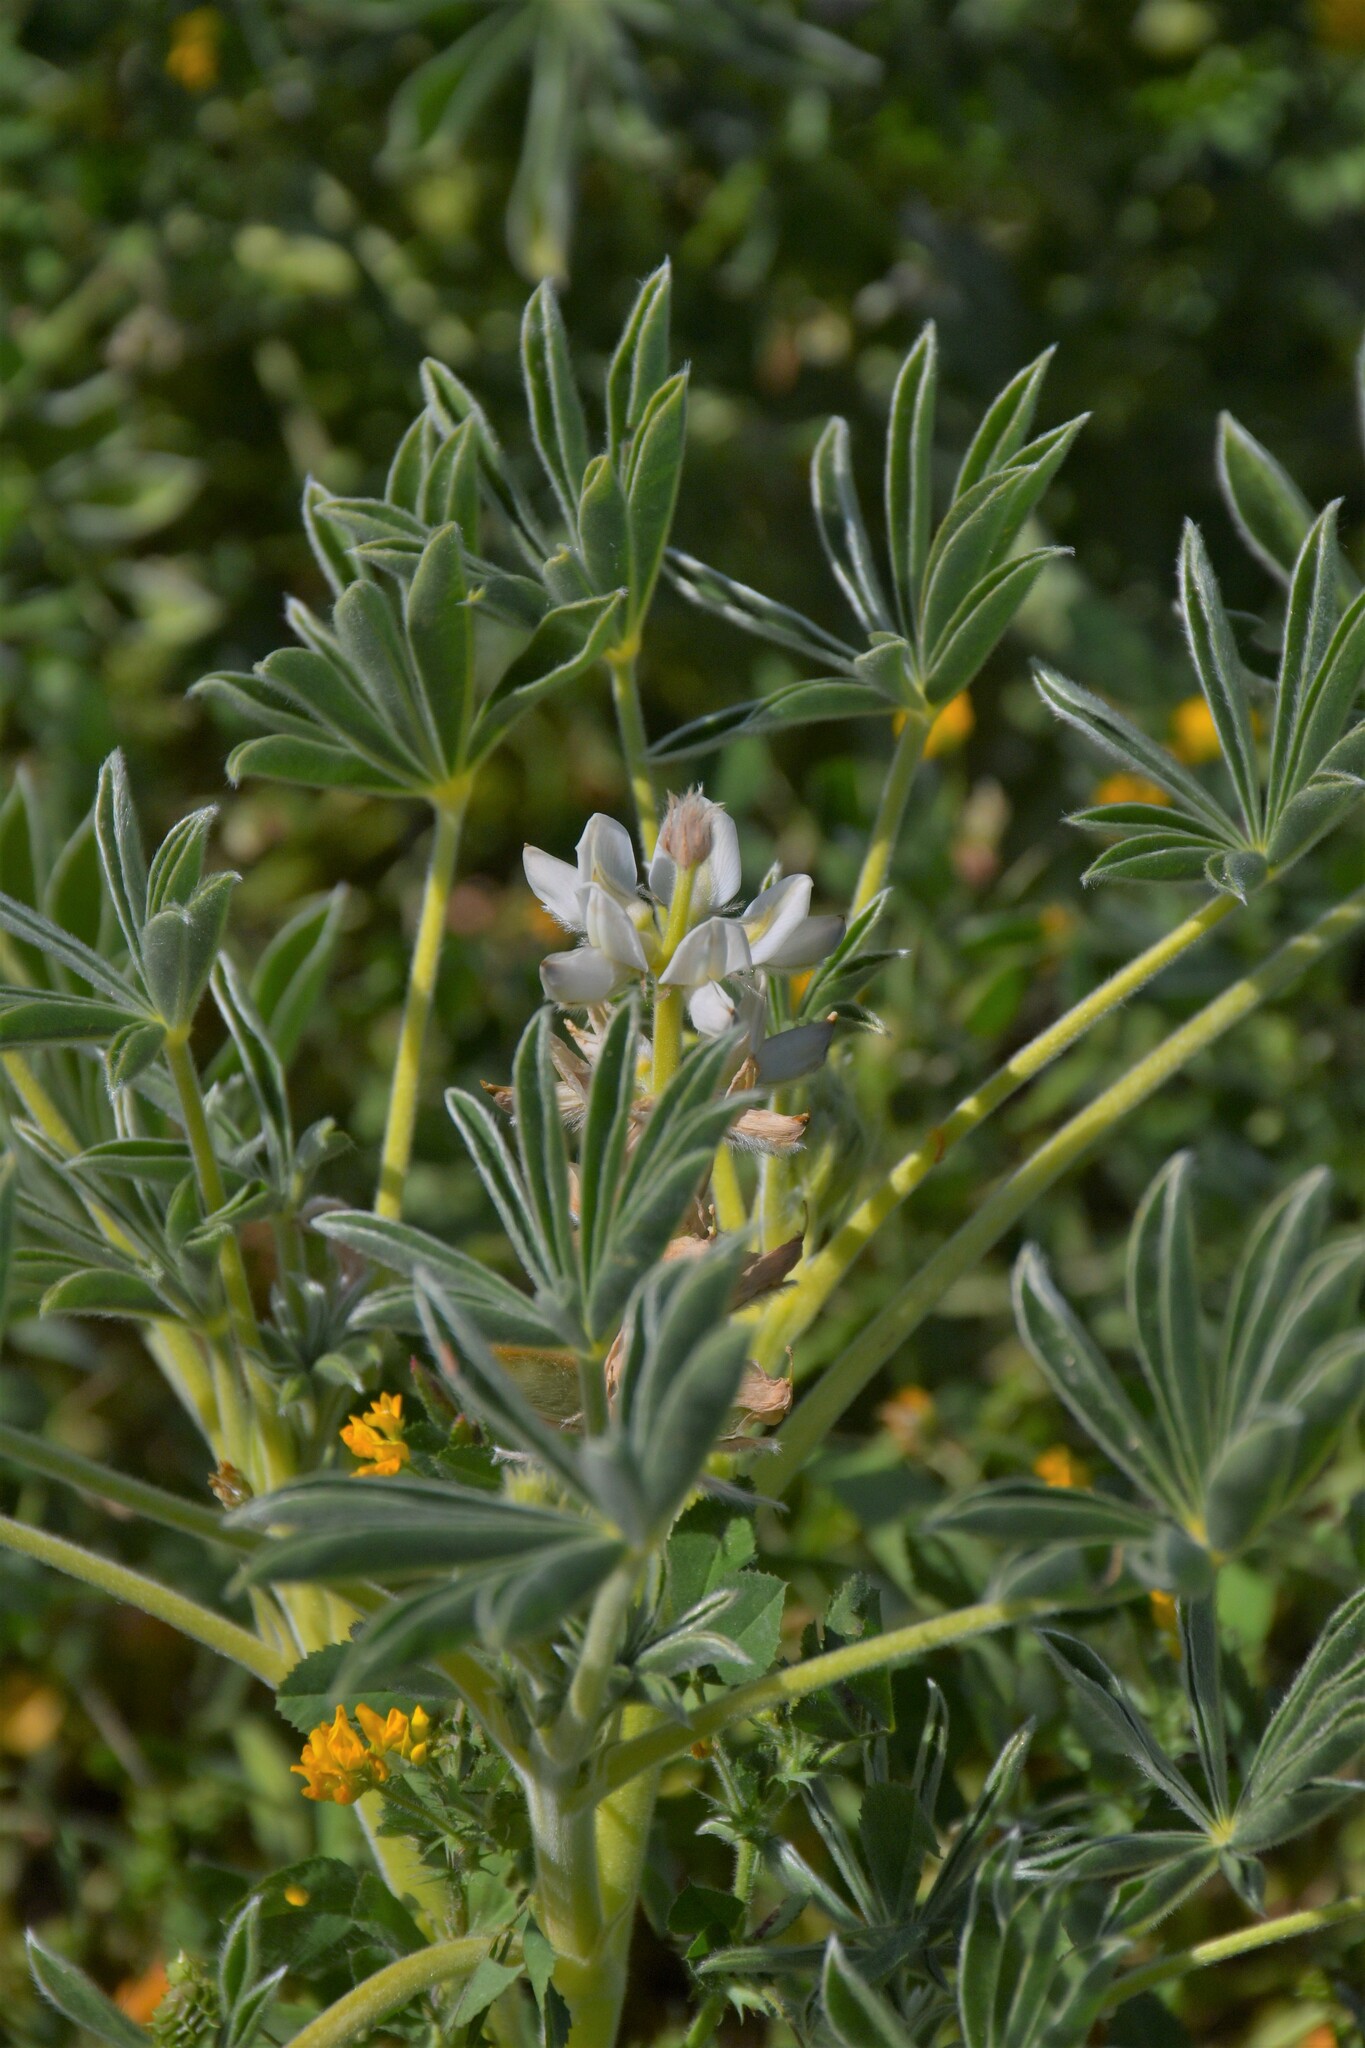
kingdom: Plantae
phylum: Tracheophyta
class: Magnoliopsida
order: Fabales
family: Fabaceae
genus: Lupinus
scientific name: Lupinus cosentinii
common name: Hairy blue lupin
